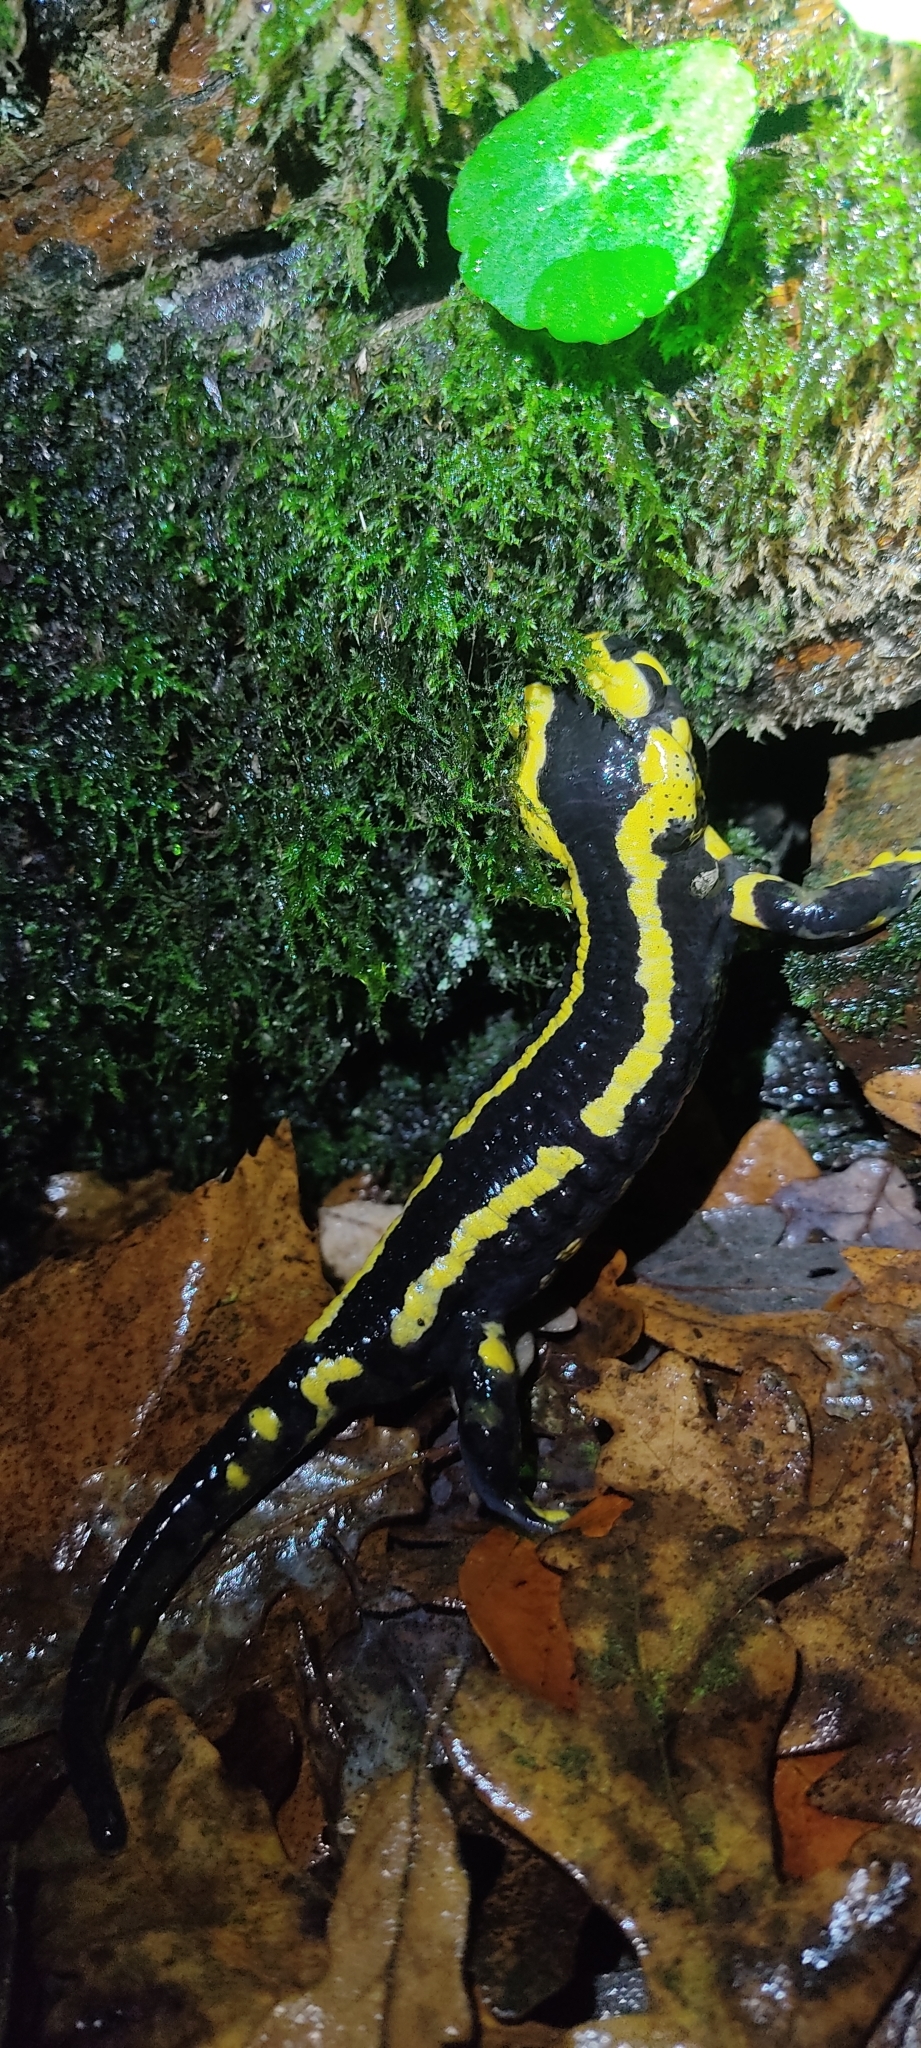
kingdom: Animalia
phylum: Chordata
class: Amphibia
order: Caudata
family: Salamandridae
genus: Salamandra
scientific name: Salamandra salamandra
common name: Fire salamander
